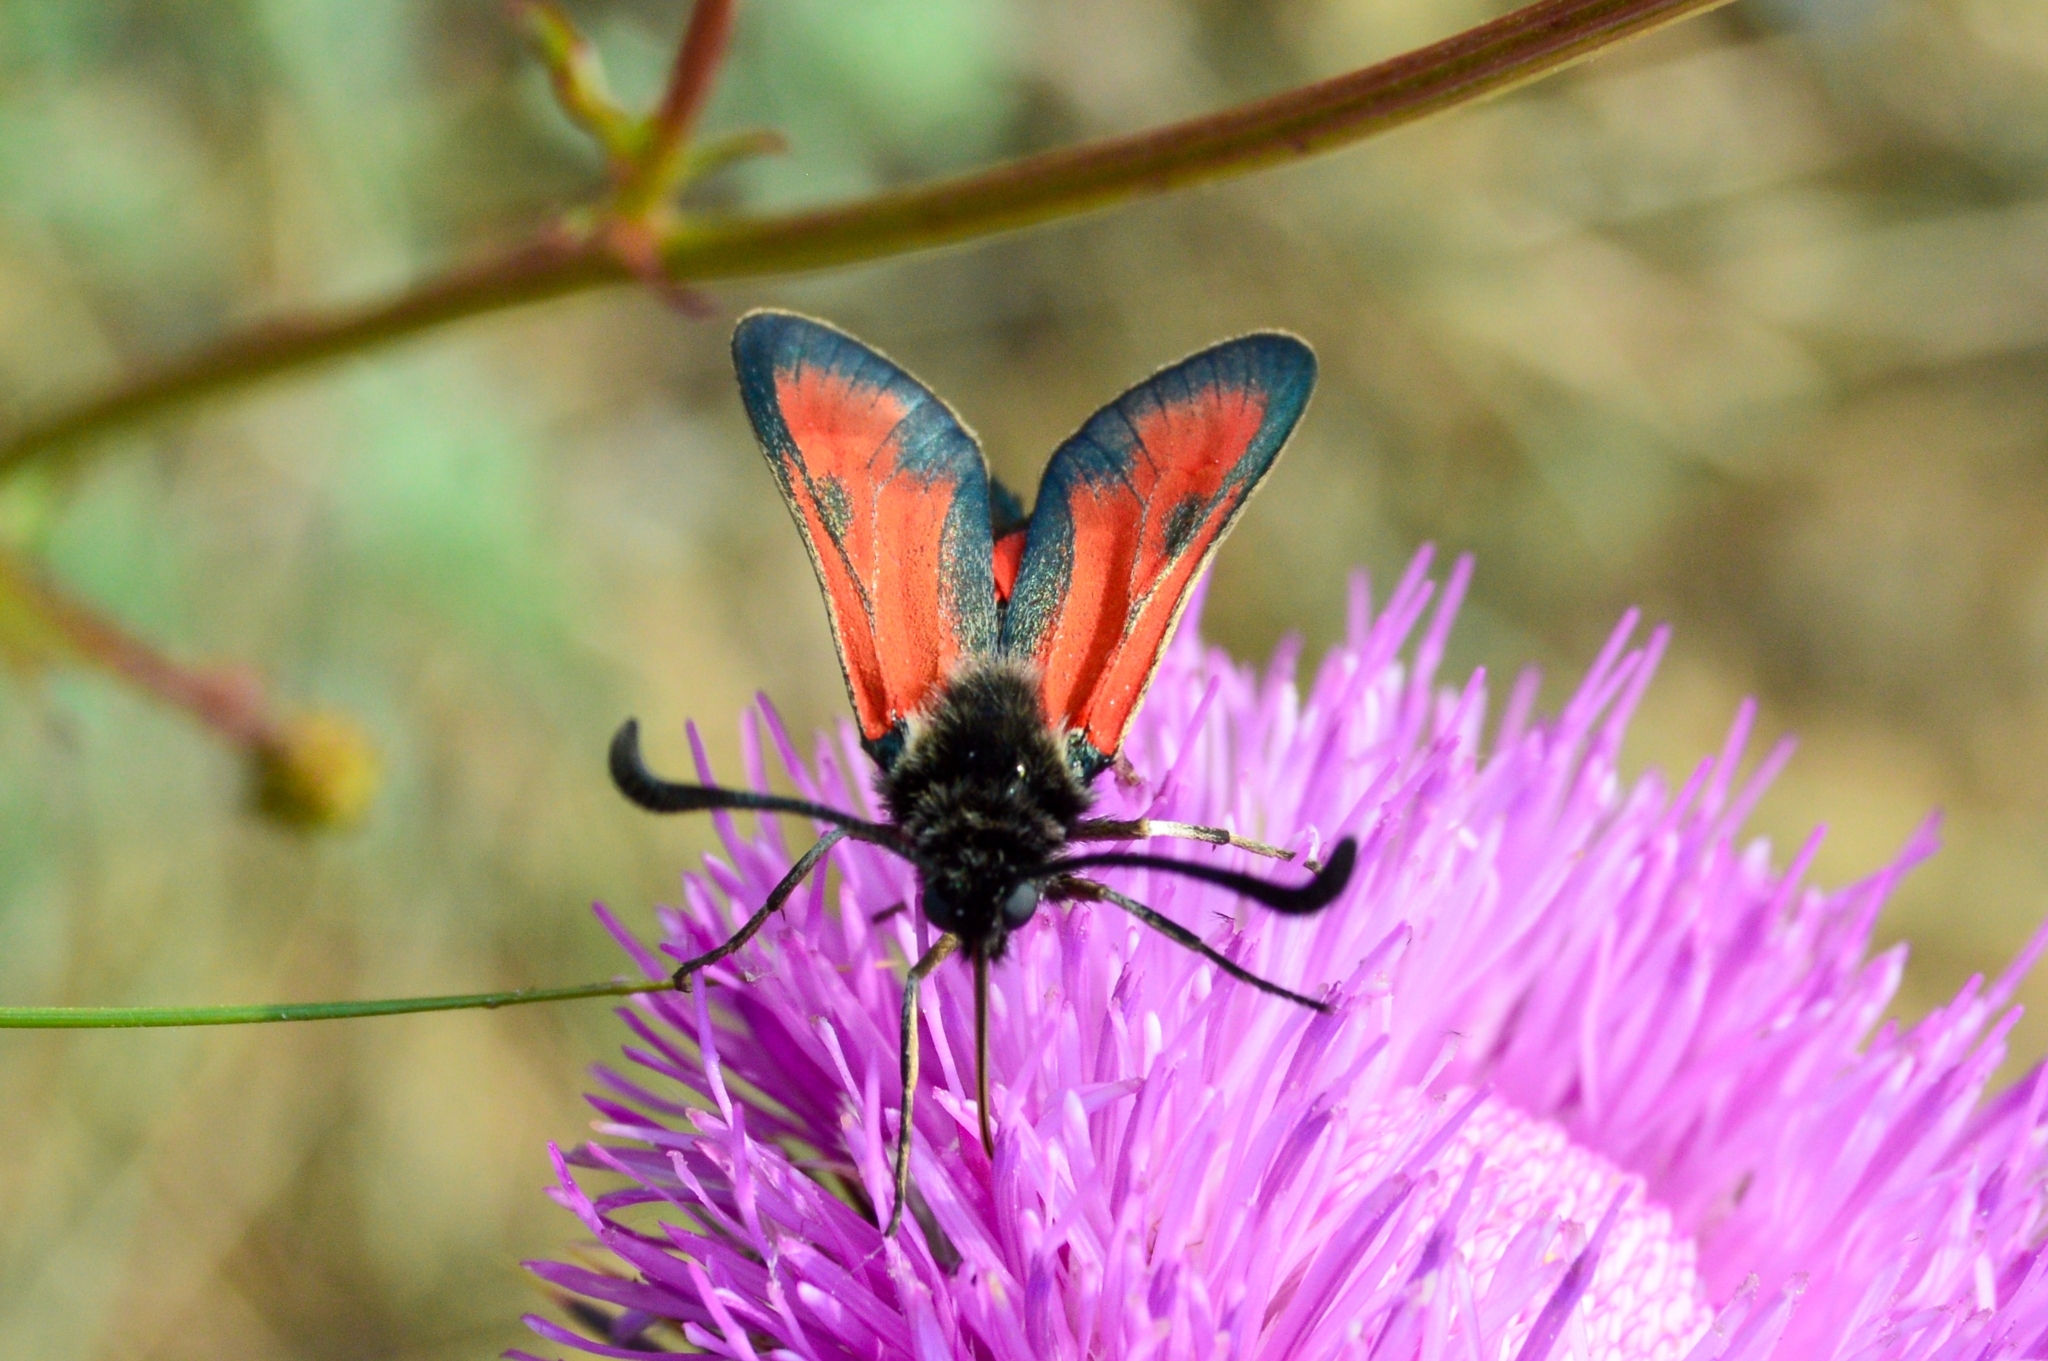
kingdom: Animalia
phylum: Arthropoda
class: Insecta
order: Lepidoptera
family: Zygaenidae
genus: Zygaena
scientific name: Zygaena punctum
